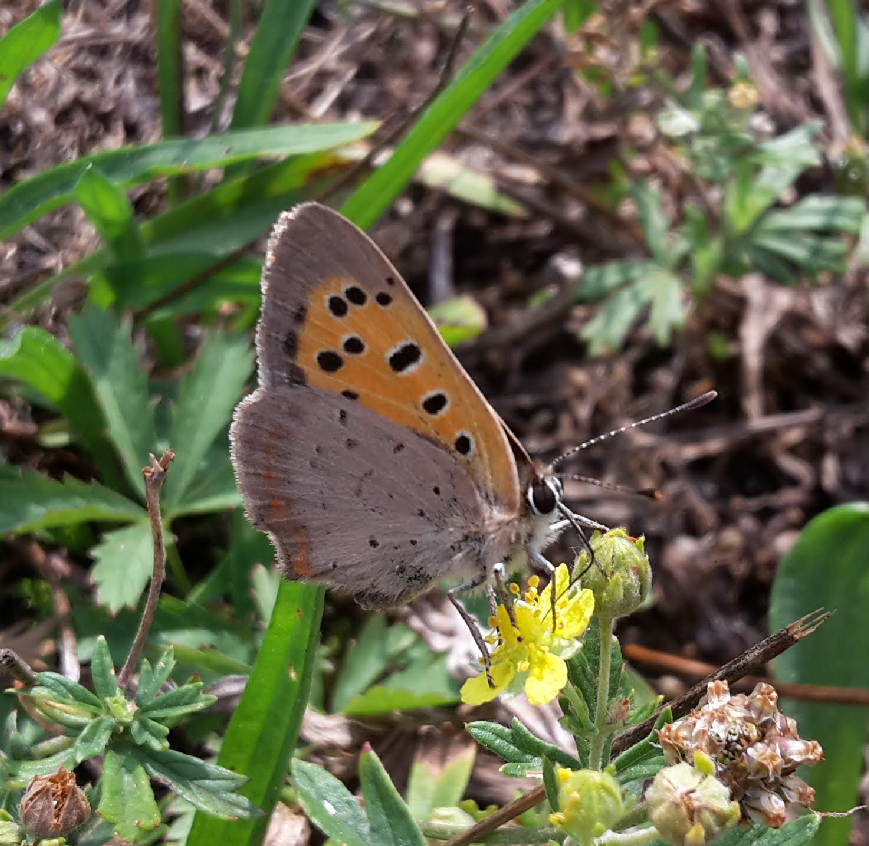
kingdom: Animalia
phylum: Arthropoda
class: Insecta
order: Lepidoptera
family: Lycaenidae
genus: Lycaena
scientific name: Lycaena phlaeas
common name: Small copper
